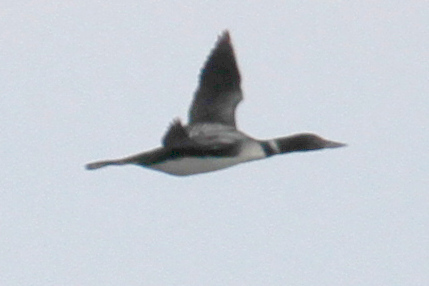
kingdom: Animalia
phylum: Chordata
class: Aves
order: Gaviiformes
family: Gaviidae
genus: Gavia
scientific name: Gavia immer
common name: Common loon
